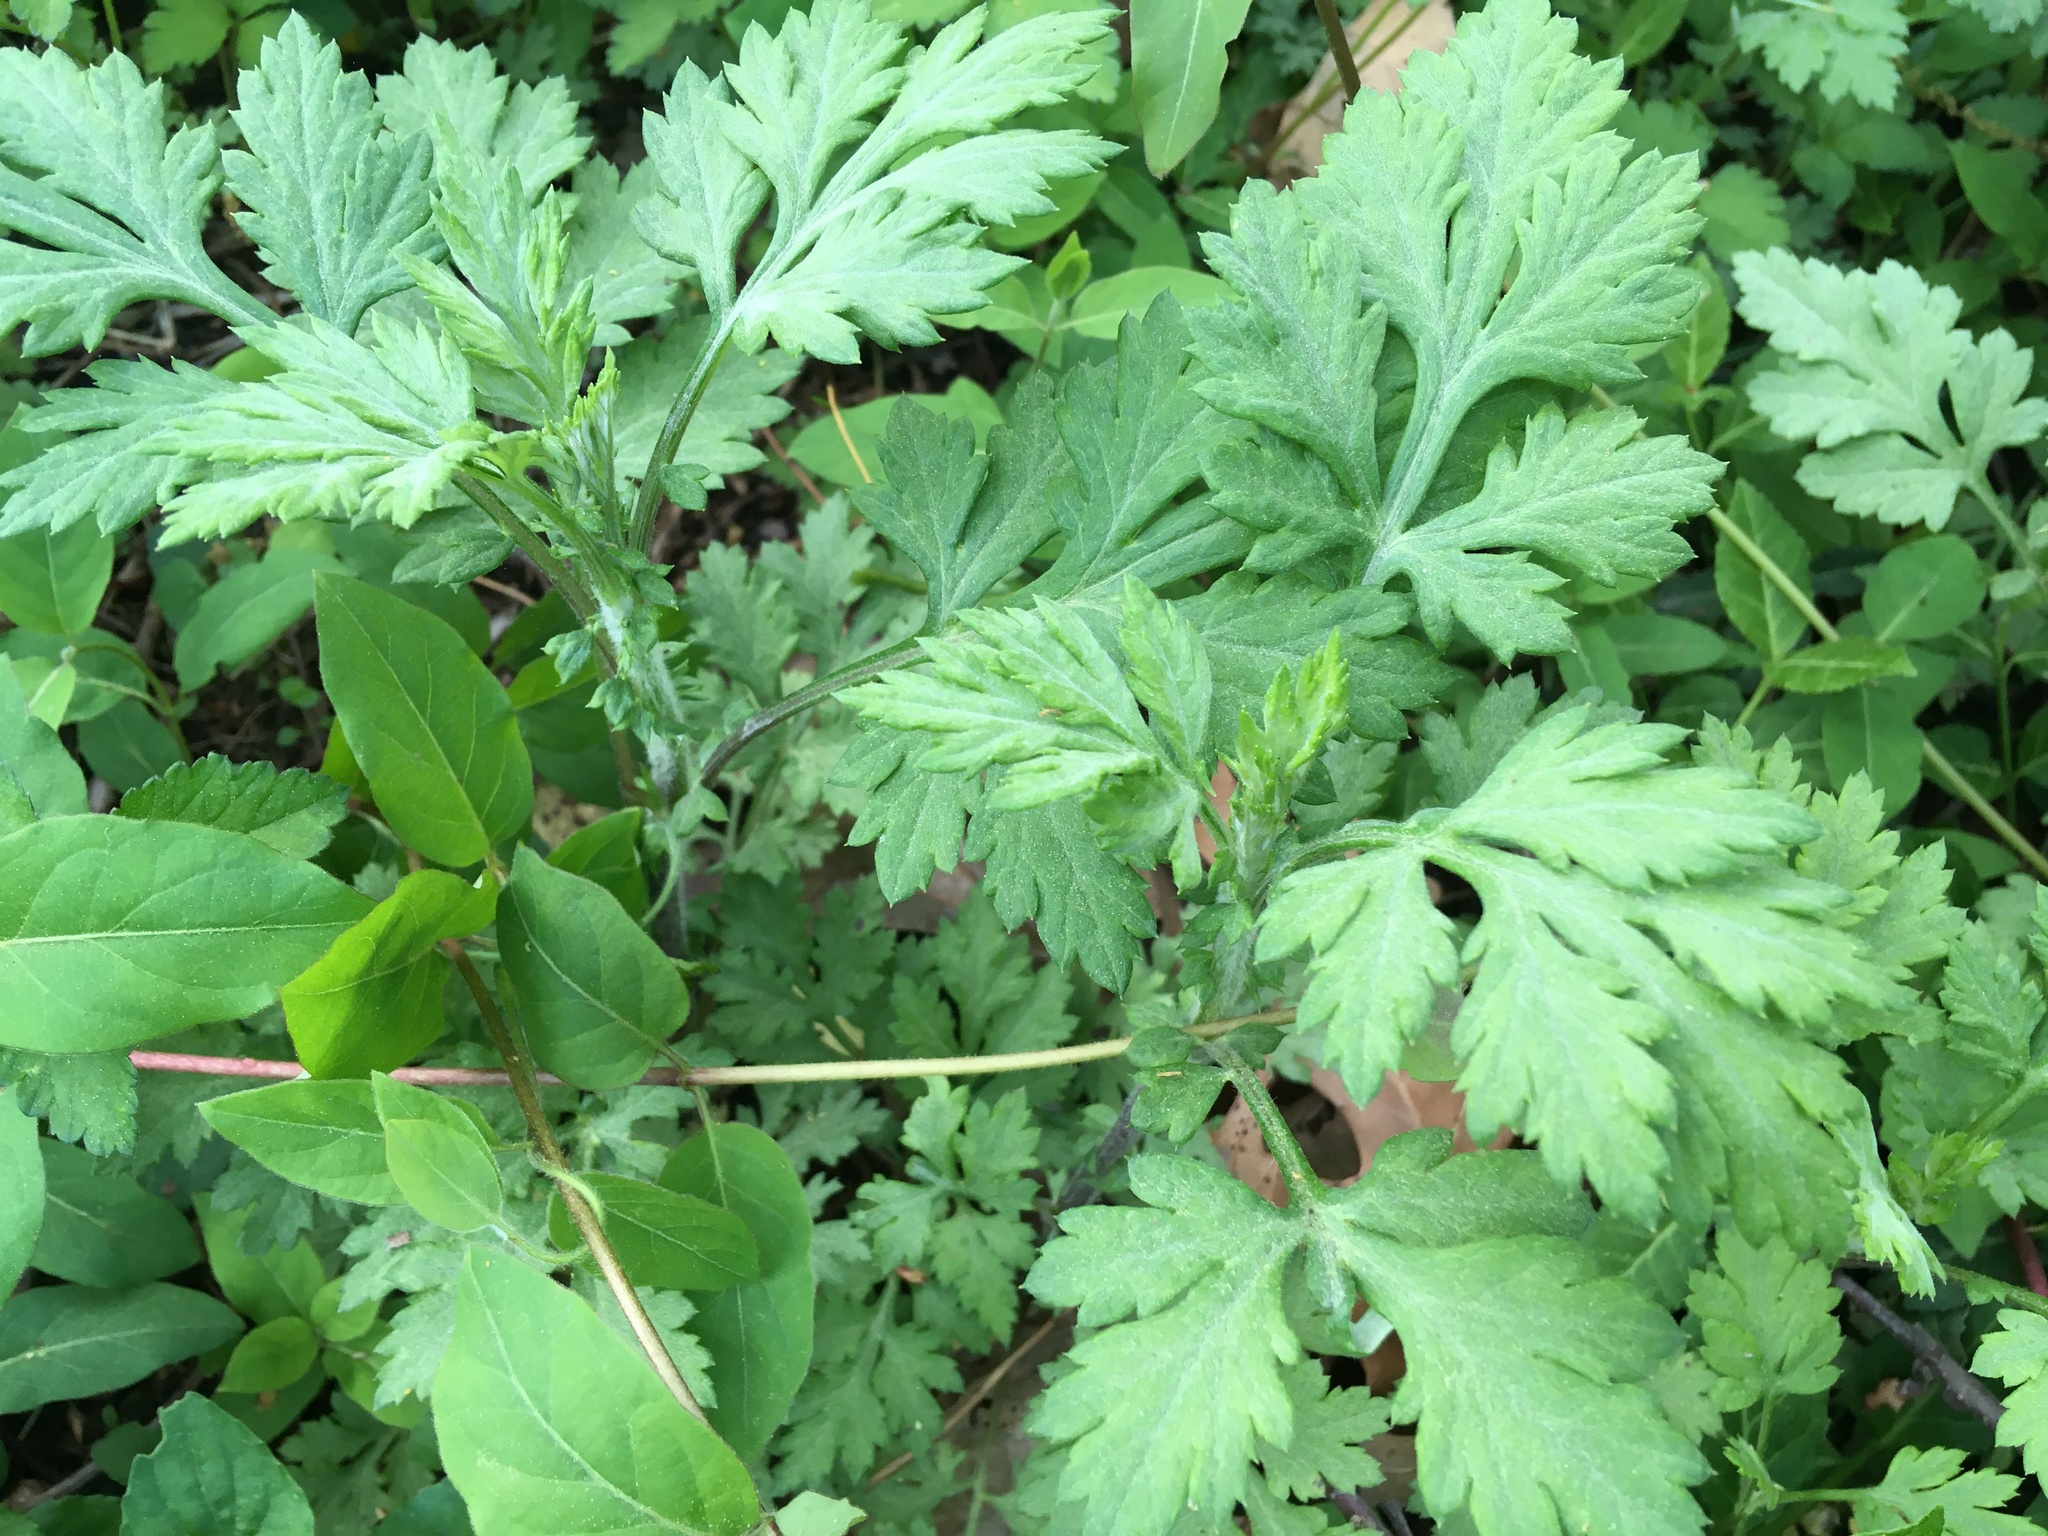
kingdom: Plantae
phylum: Tracheophyta
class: Magnoliopsida
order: Asterales
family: Asteraceae
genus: Artemisia
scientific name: Artemisia vulgaris
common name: Mugwort
